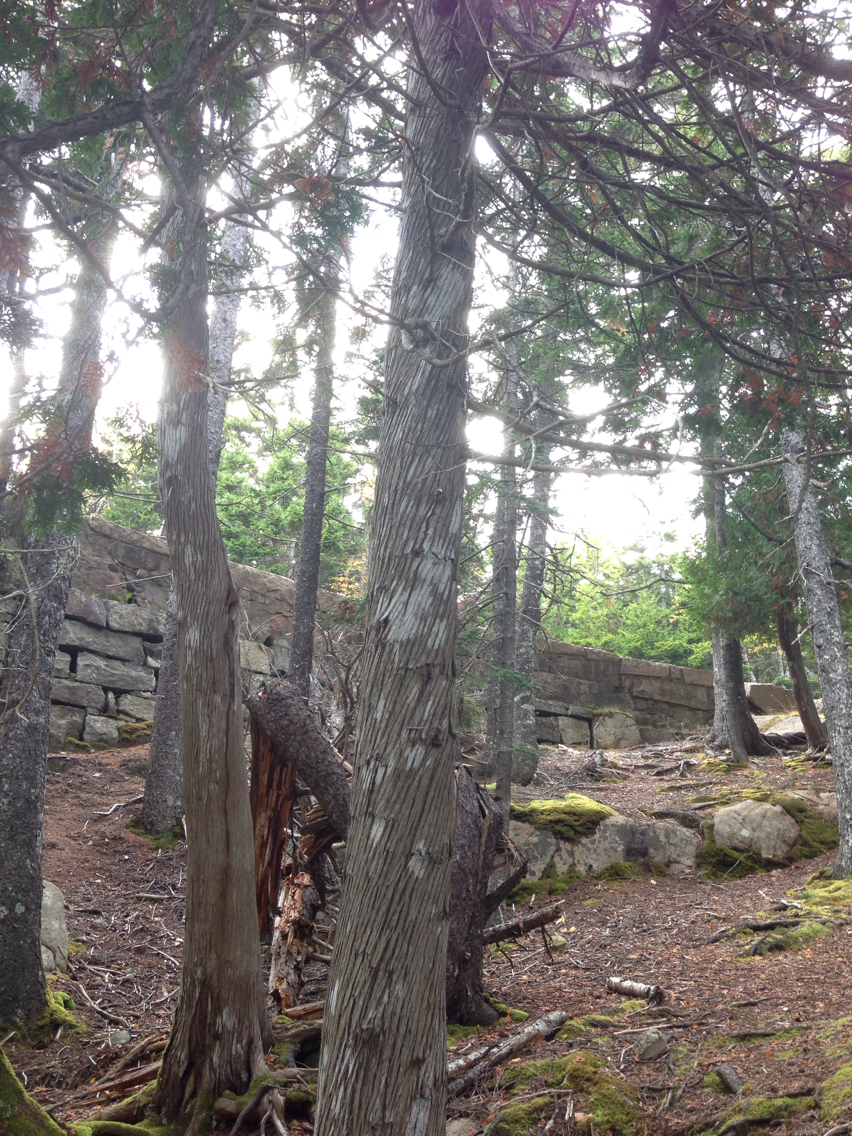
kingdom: Plantae
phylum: Tracheophyta
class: Pinopsida
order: Pinales
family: Cupressaceae
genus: Thuja
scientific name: Thuja occidentalis
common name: Northern white-cedar
